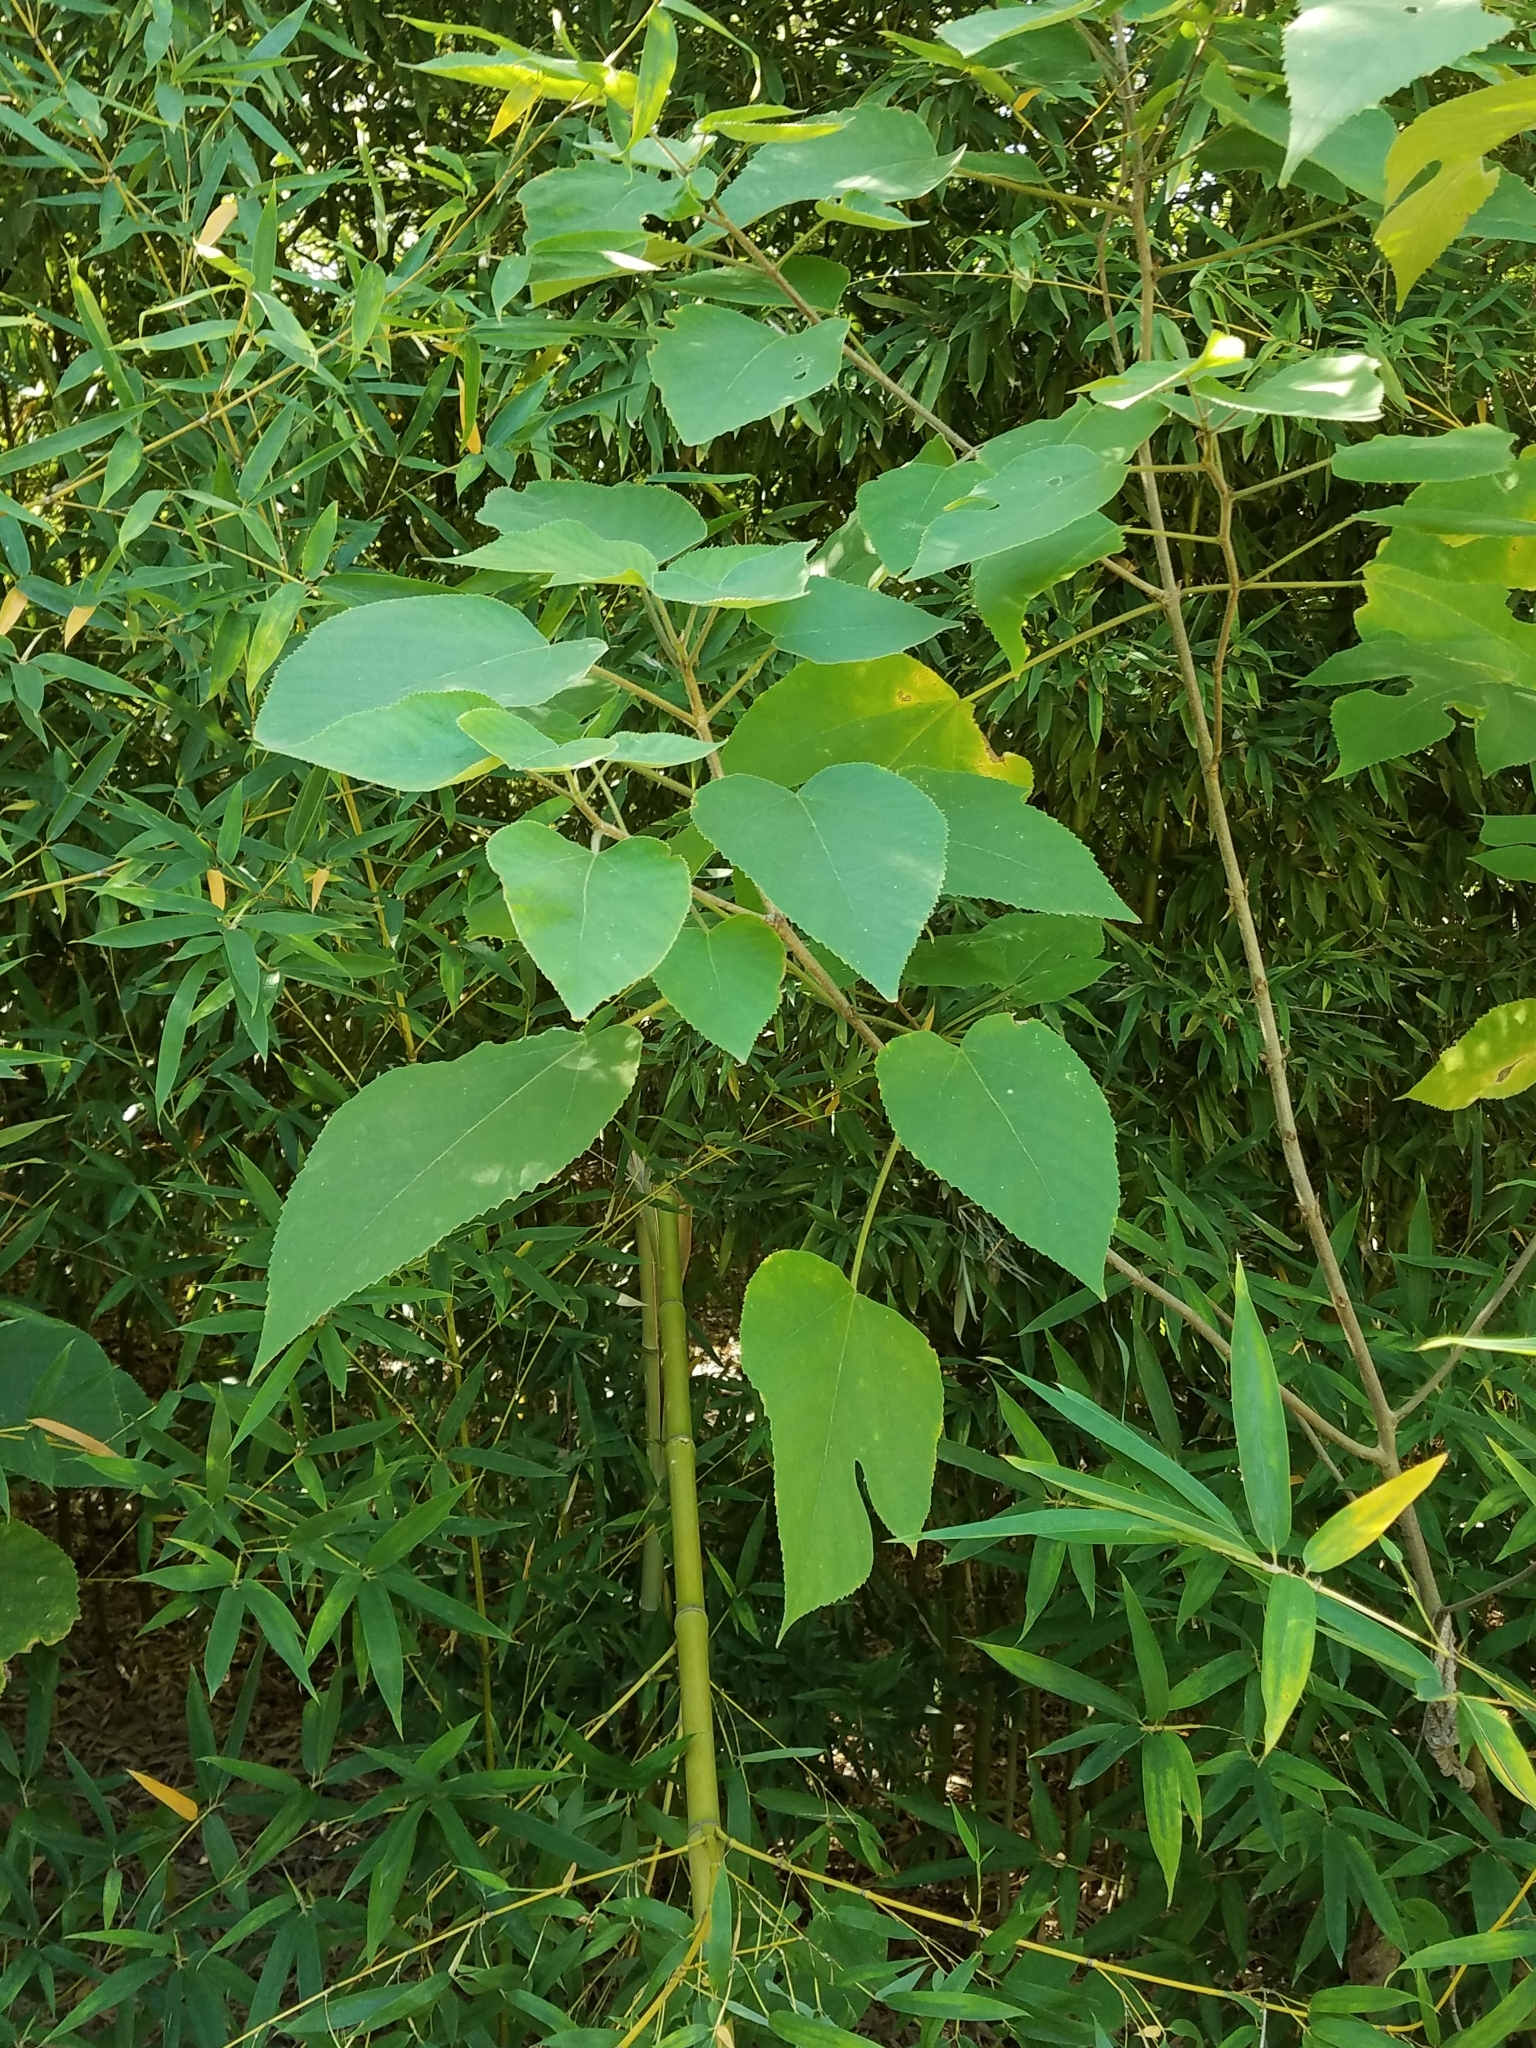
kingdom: Plantae
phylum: Tracheophyta
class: Magnoliopsida
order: Rosales
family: Moraceae
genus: Broussonetia
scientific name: Broussonetia papyrifera
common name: Paper mulberry
